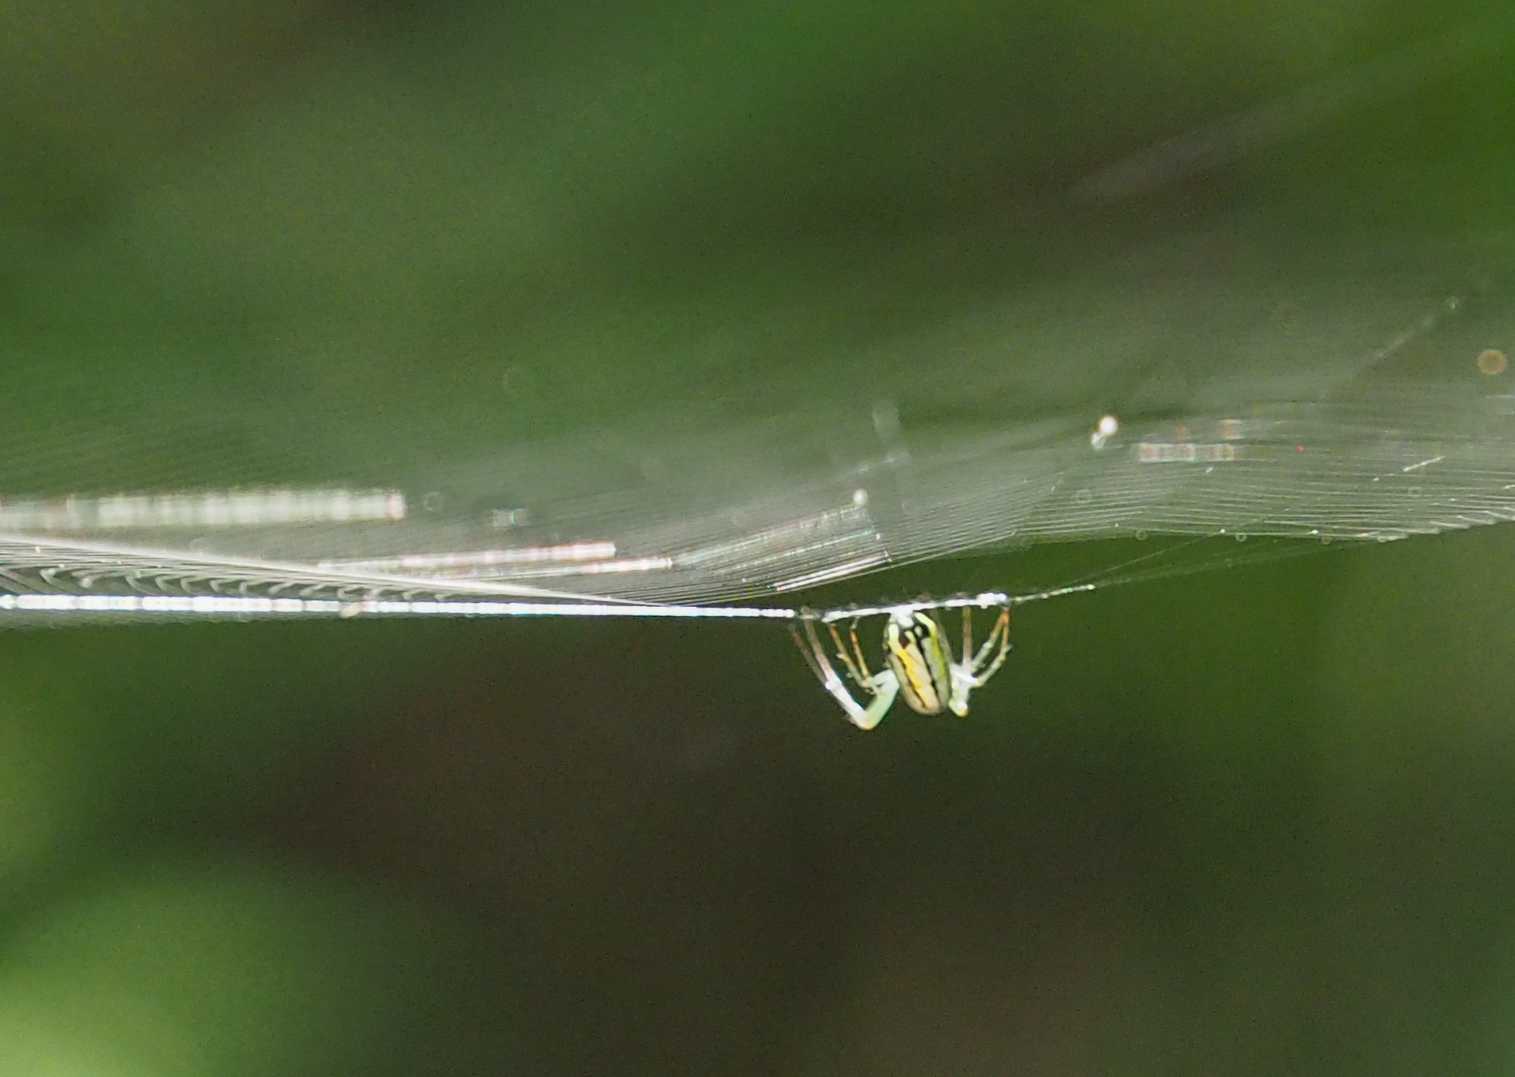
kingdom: Animalia
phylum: Arthropoda
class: Arachnida
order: Araneae
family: Tetragnathidae
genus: Leucauge
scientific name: Leucauge venusta
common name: Longjawed orb weavers
